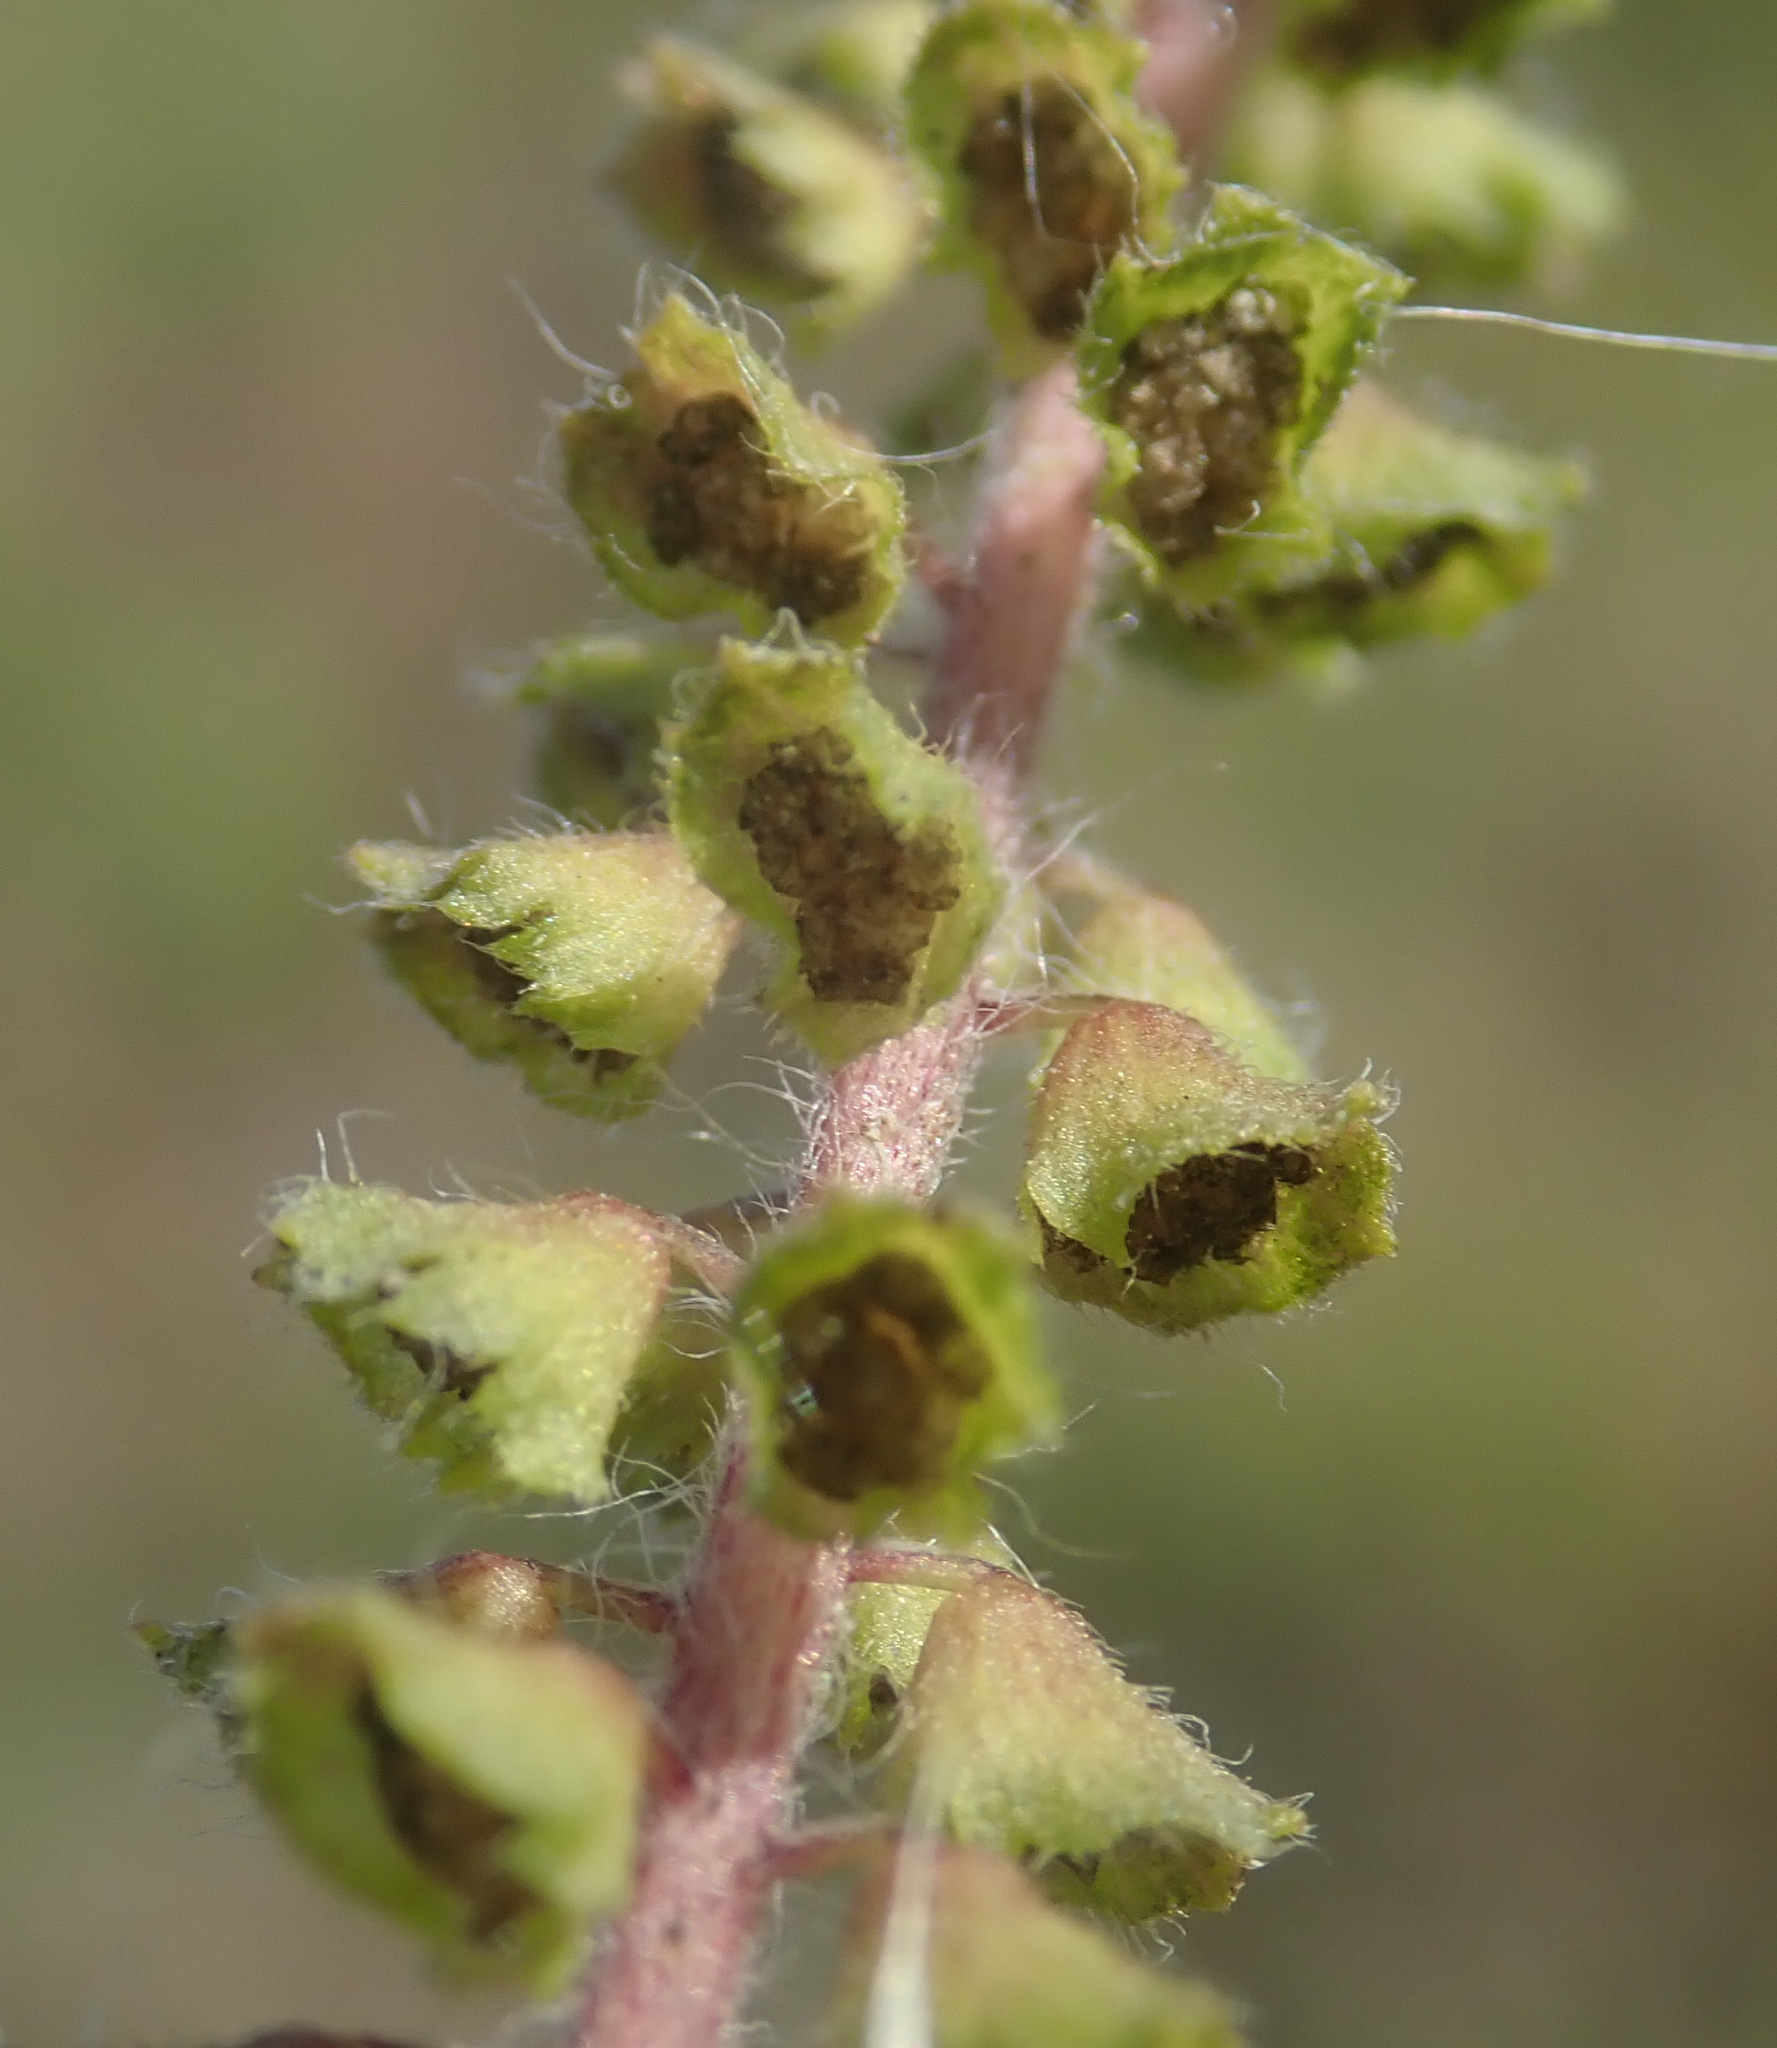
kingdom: Plantae
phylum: Tracheophyta
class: Magnoliopsida
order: Asterales
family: Asteraceae
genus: Ambrosia
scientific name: Ambrosia artemisiifolia
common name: Annual ragweed
